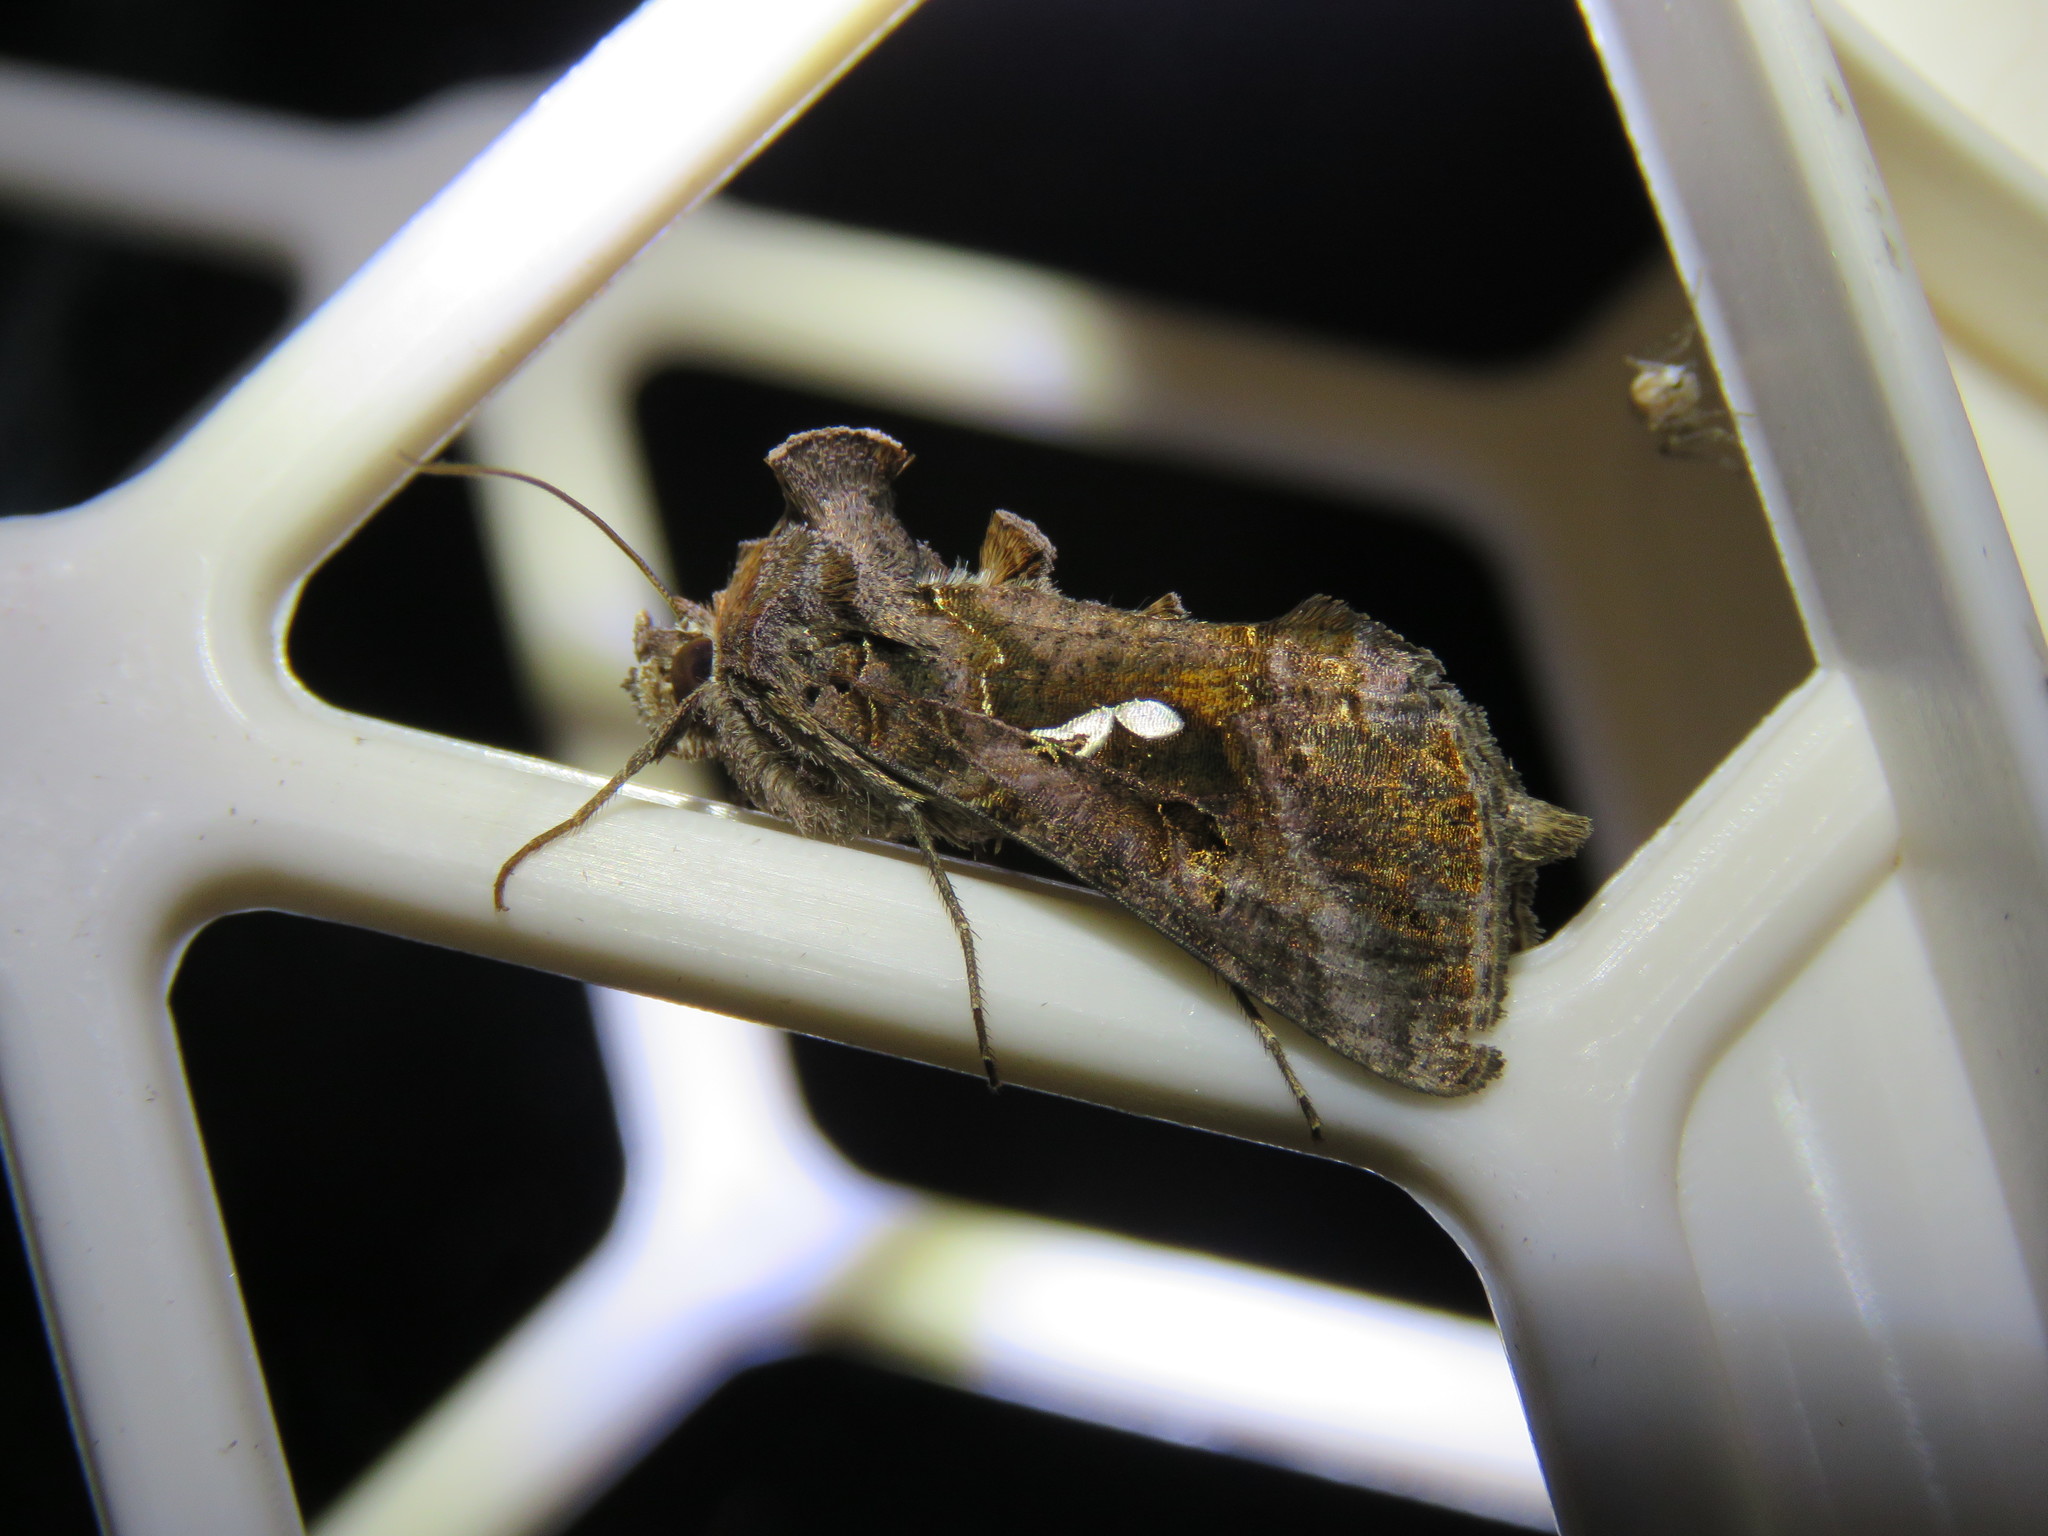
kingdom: Animalia
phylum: Arthropoda
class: Insecta
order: Lepidoptera
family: Noctuidae
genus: Autographa
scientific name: Autographa precationis
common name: Common looper moth
